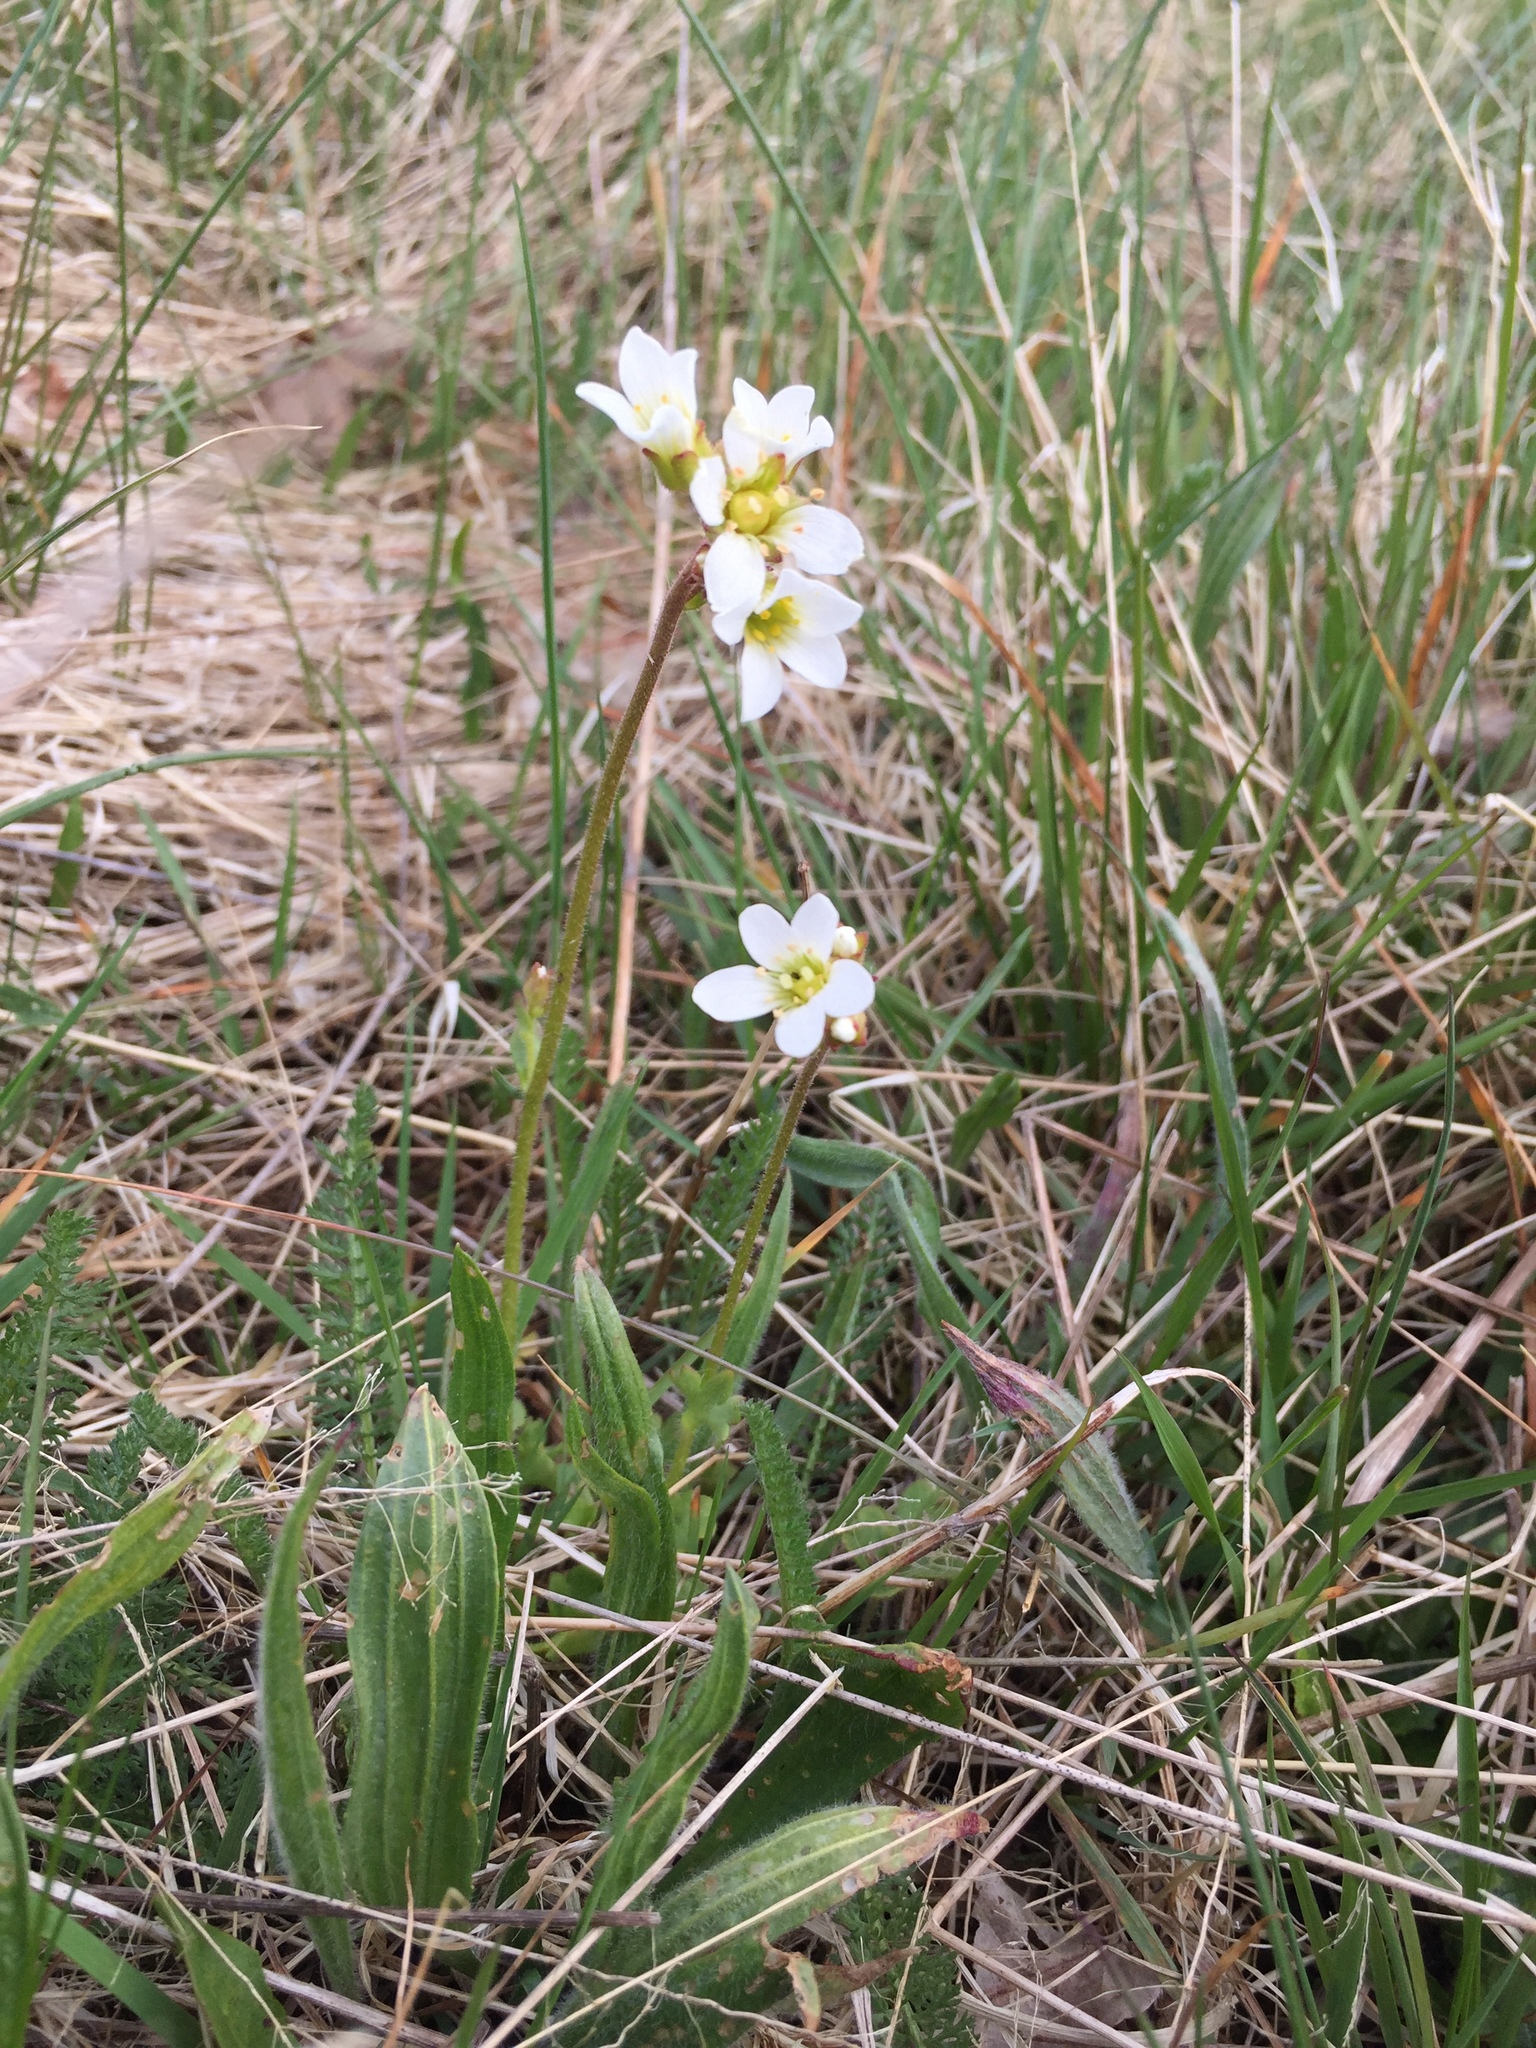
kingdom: Plantae
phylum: Tracheophyta
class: Magnoliopsida
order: Saxifragales
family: Saxifragaceae
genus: Saxifraga
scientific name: Saxifraga granulata
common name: Meadow saxifrage
